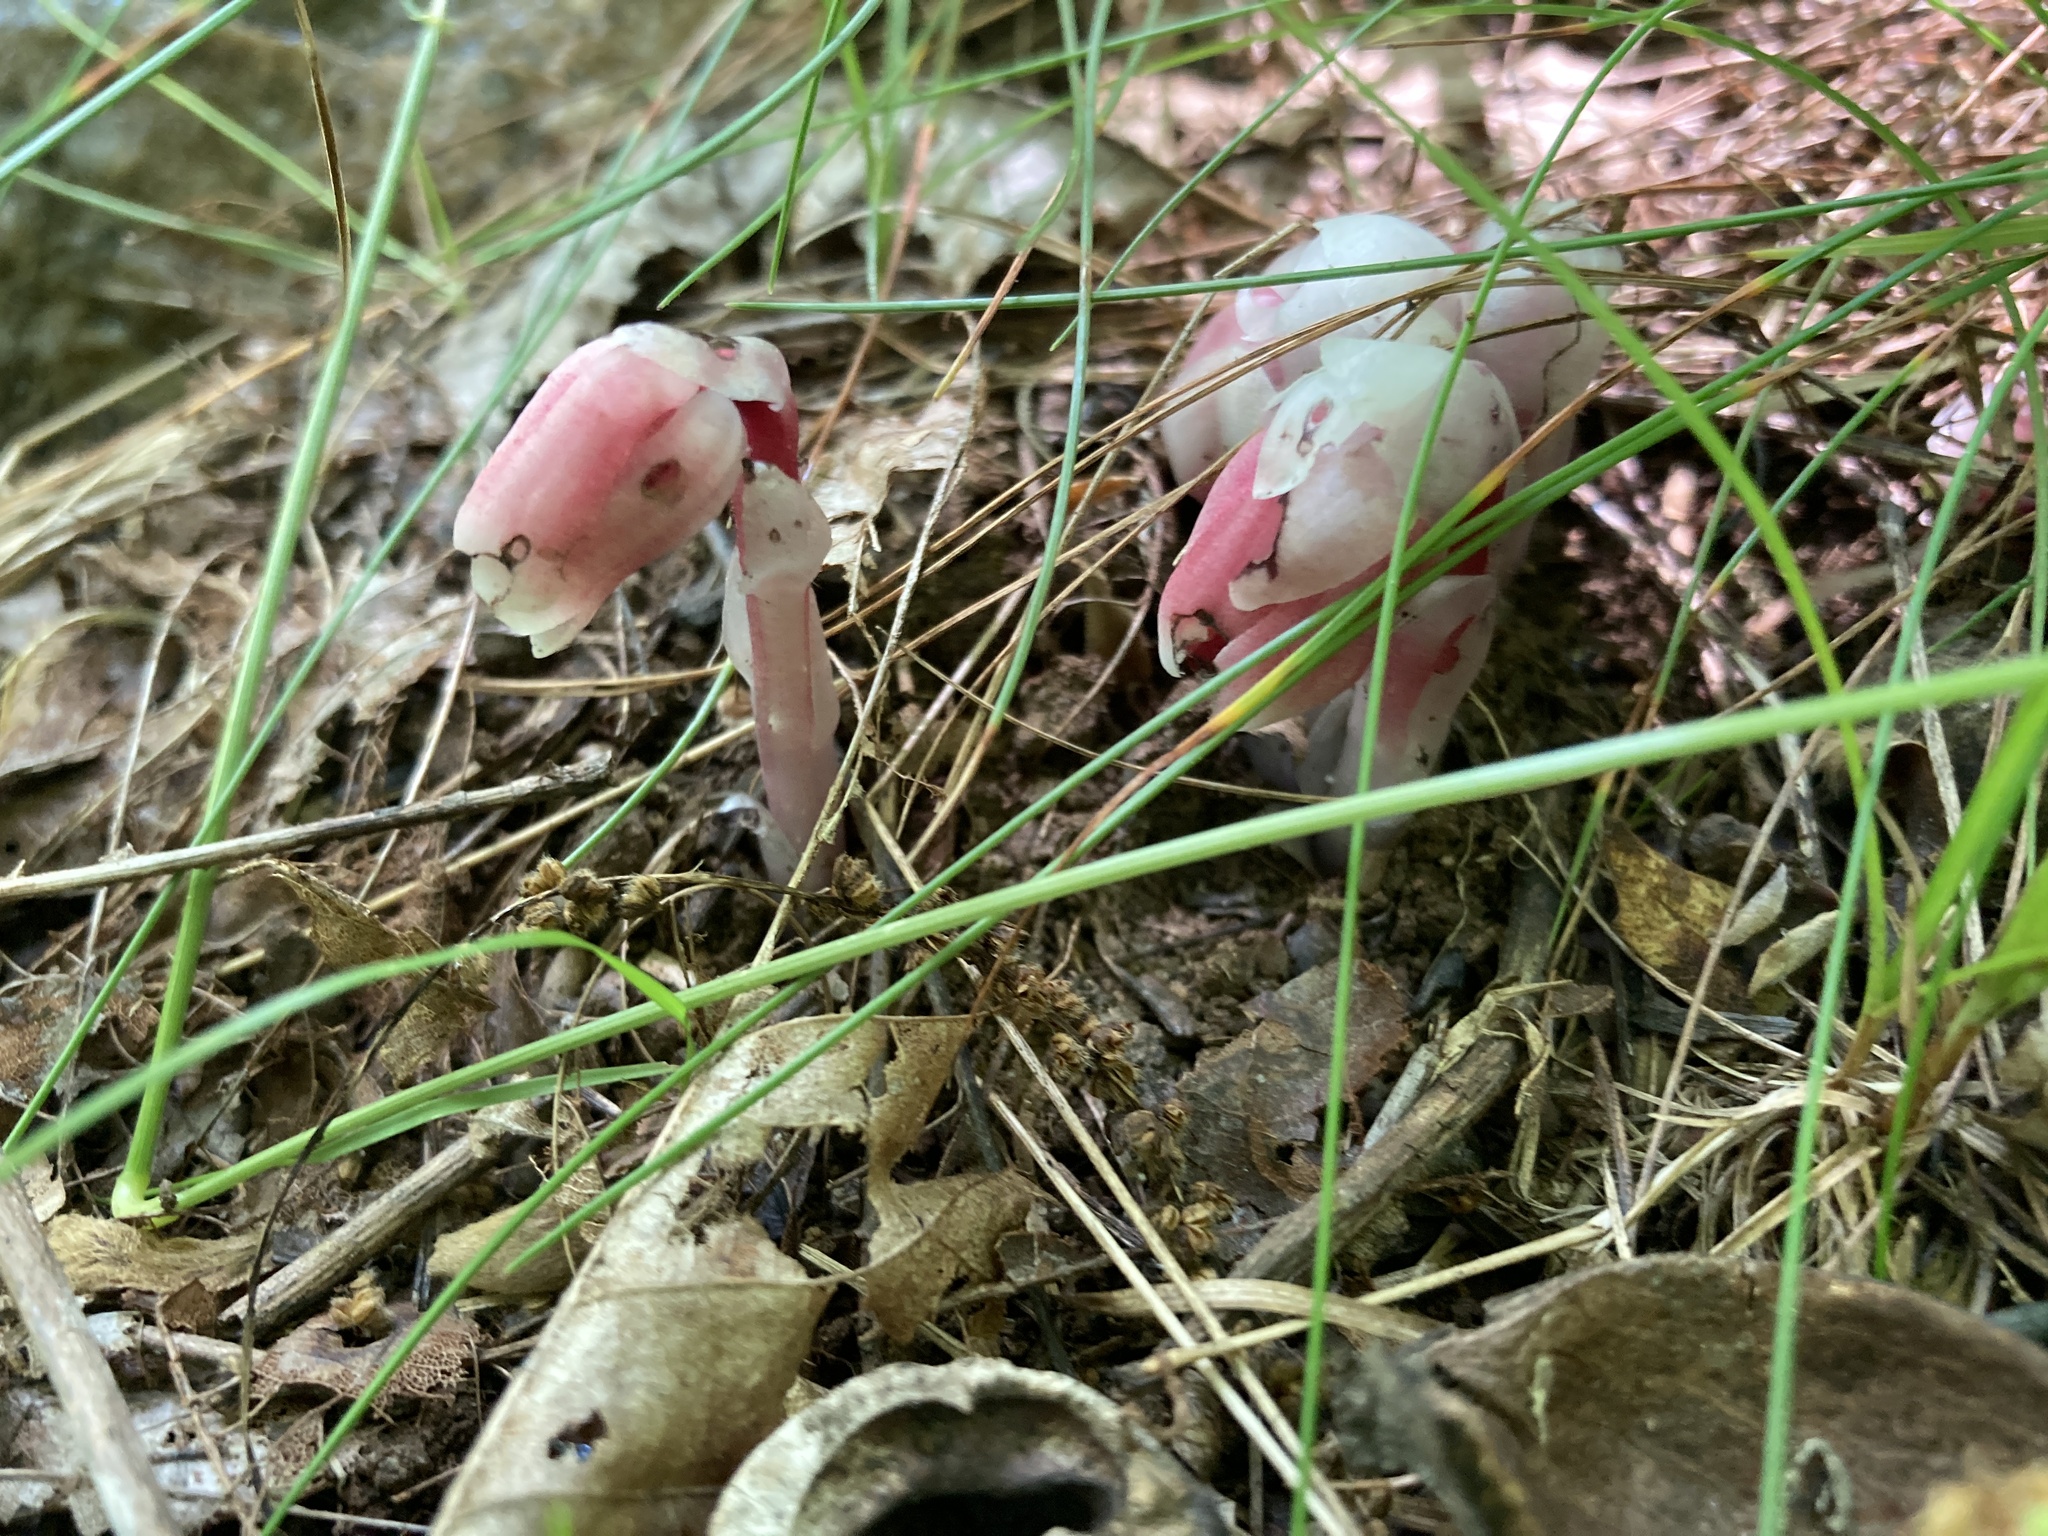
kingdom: Plantae
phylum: Tracheophyta
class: Magnoliopsida
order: Ericales
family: Ericaceae
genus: Monotropa
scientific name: Monotropa uniflora
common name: Convulsion root
